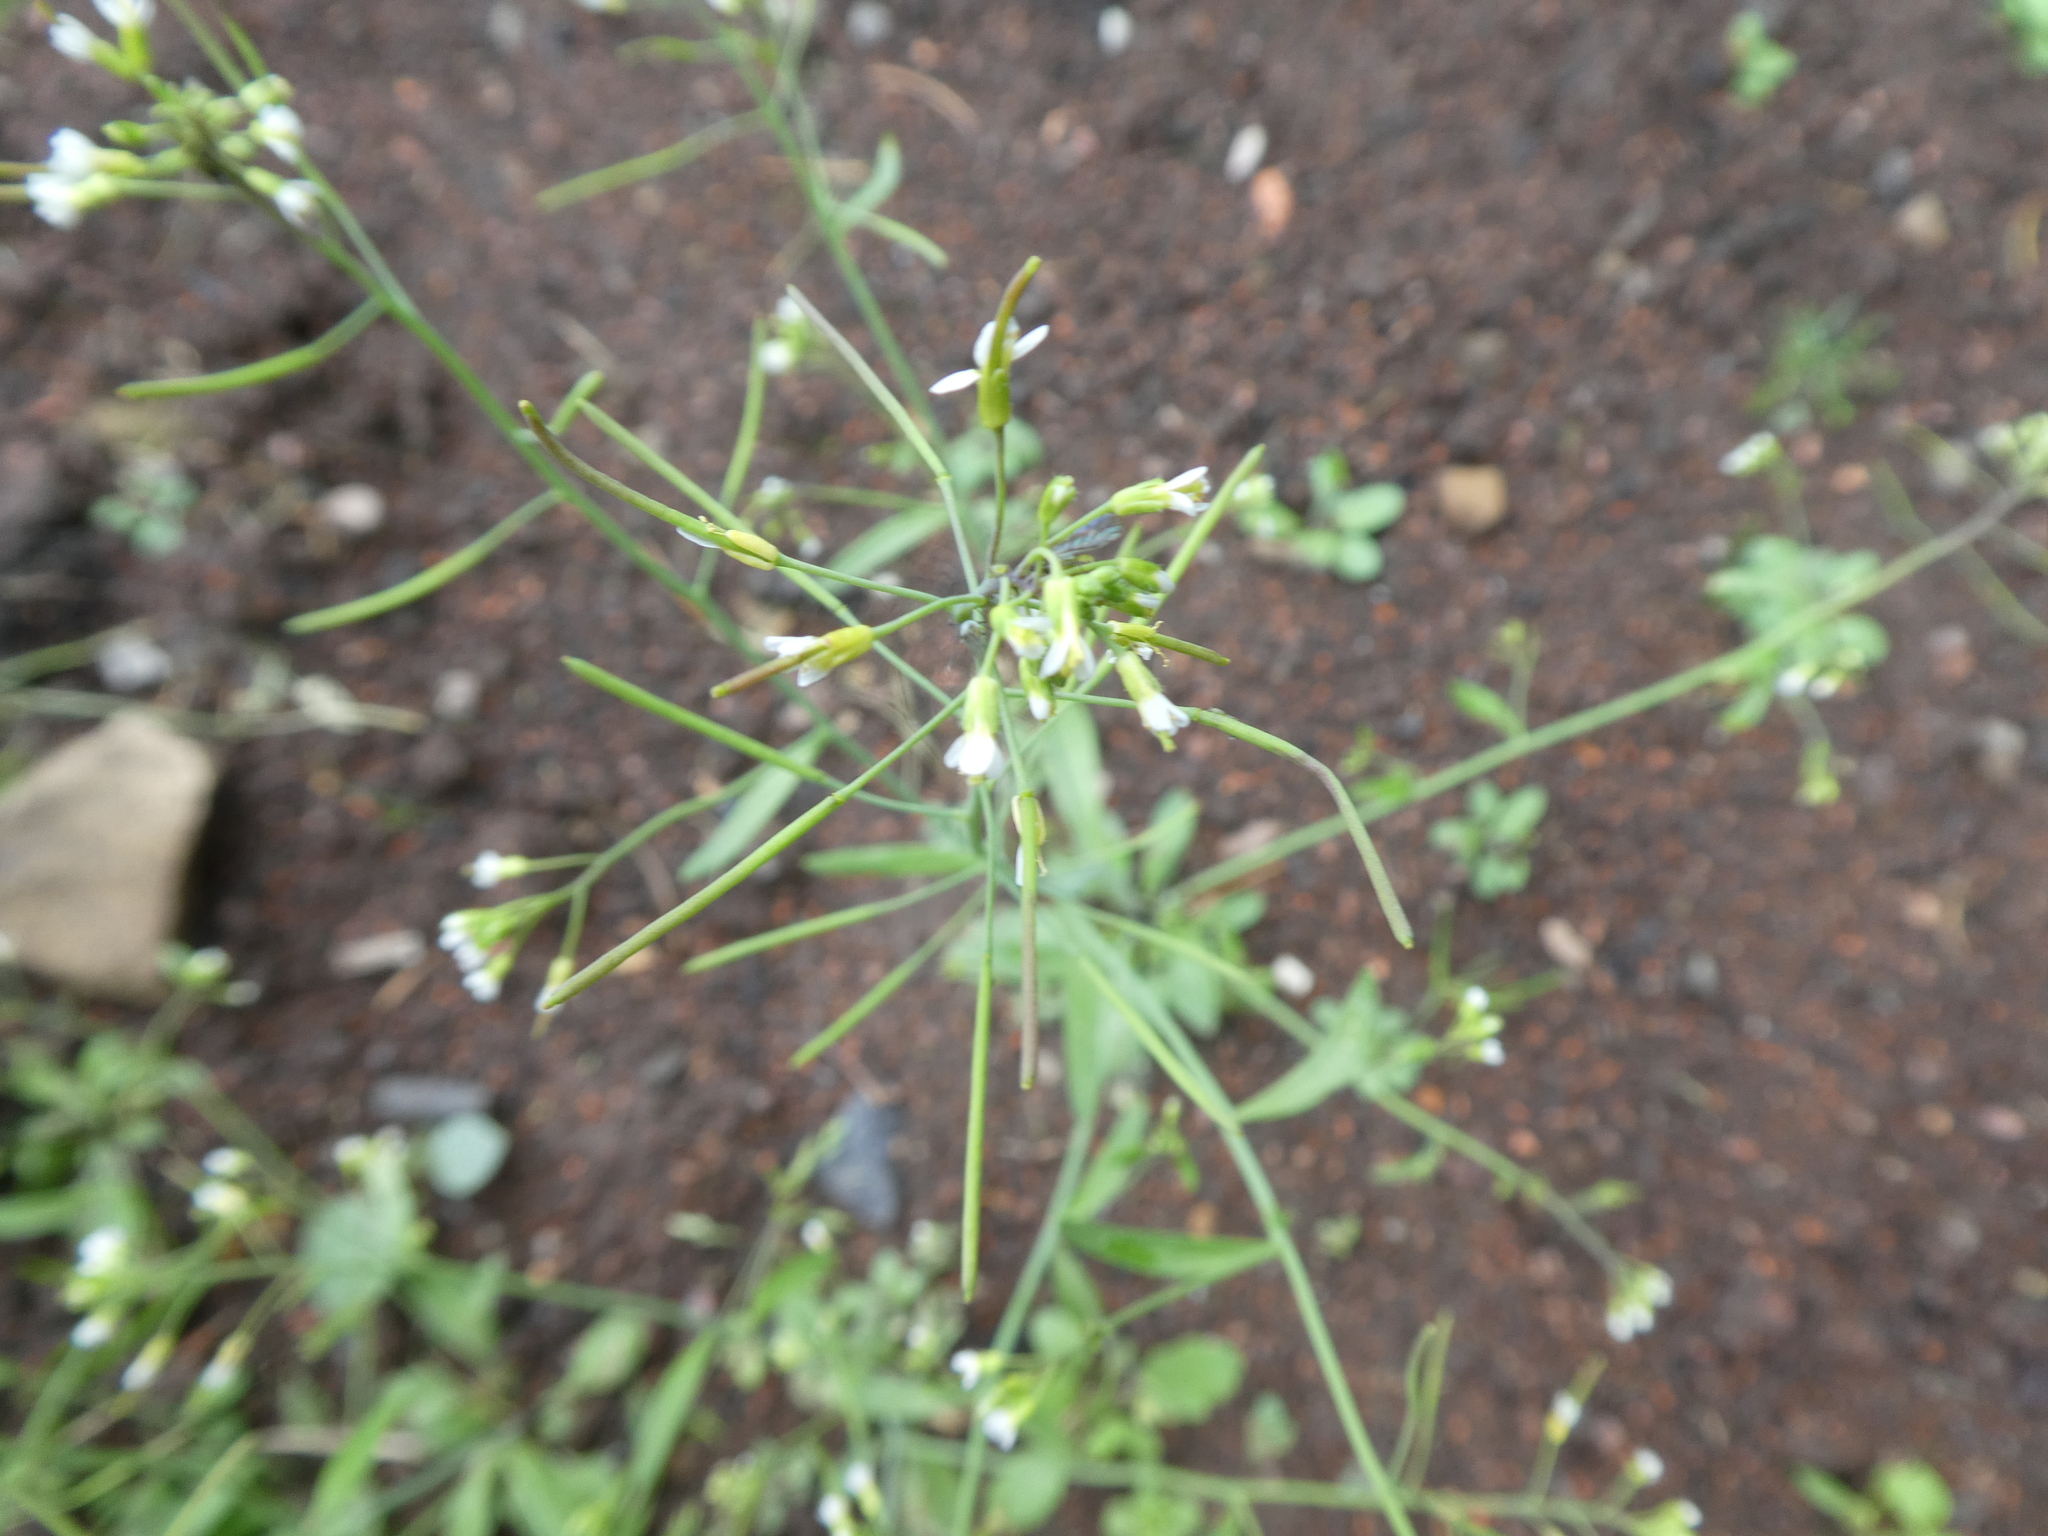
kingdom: Plantae
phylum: Tracheophyta
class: Magnoliopsida
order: Brassicales
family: Brassicaceae
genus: Arabidopsis
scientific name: Arabidopsis thaliana
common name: Thale cress
